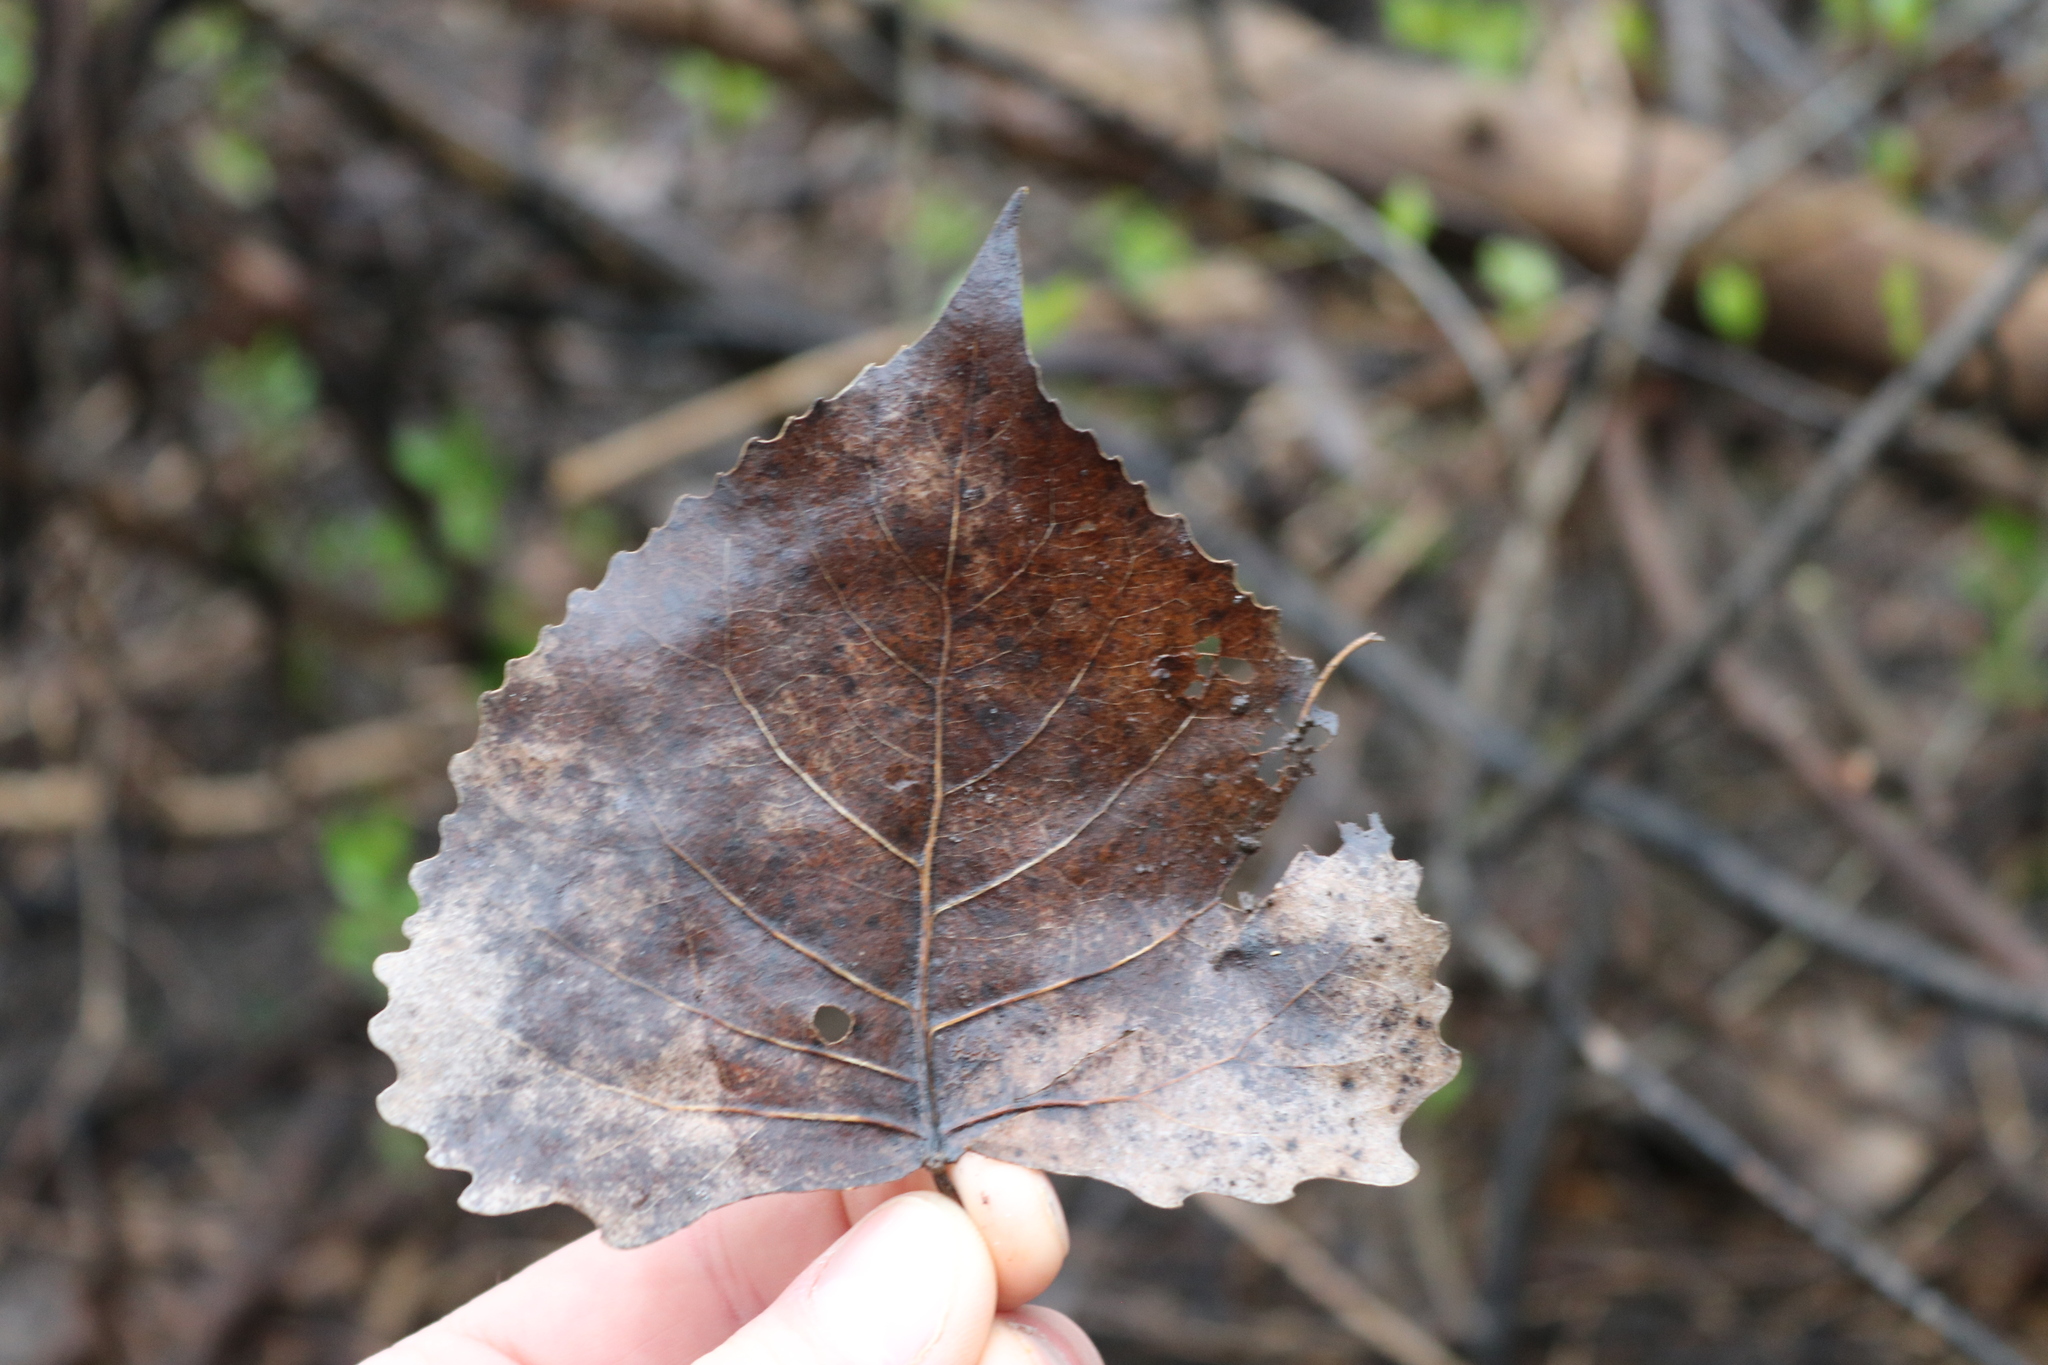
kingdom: Plantae
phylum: Tracheophyta
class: Magnoliopsida
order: Malpighiales
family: Salicaceae
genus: Populus
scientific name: Populus deltoides
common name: Eastern cottonwood
